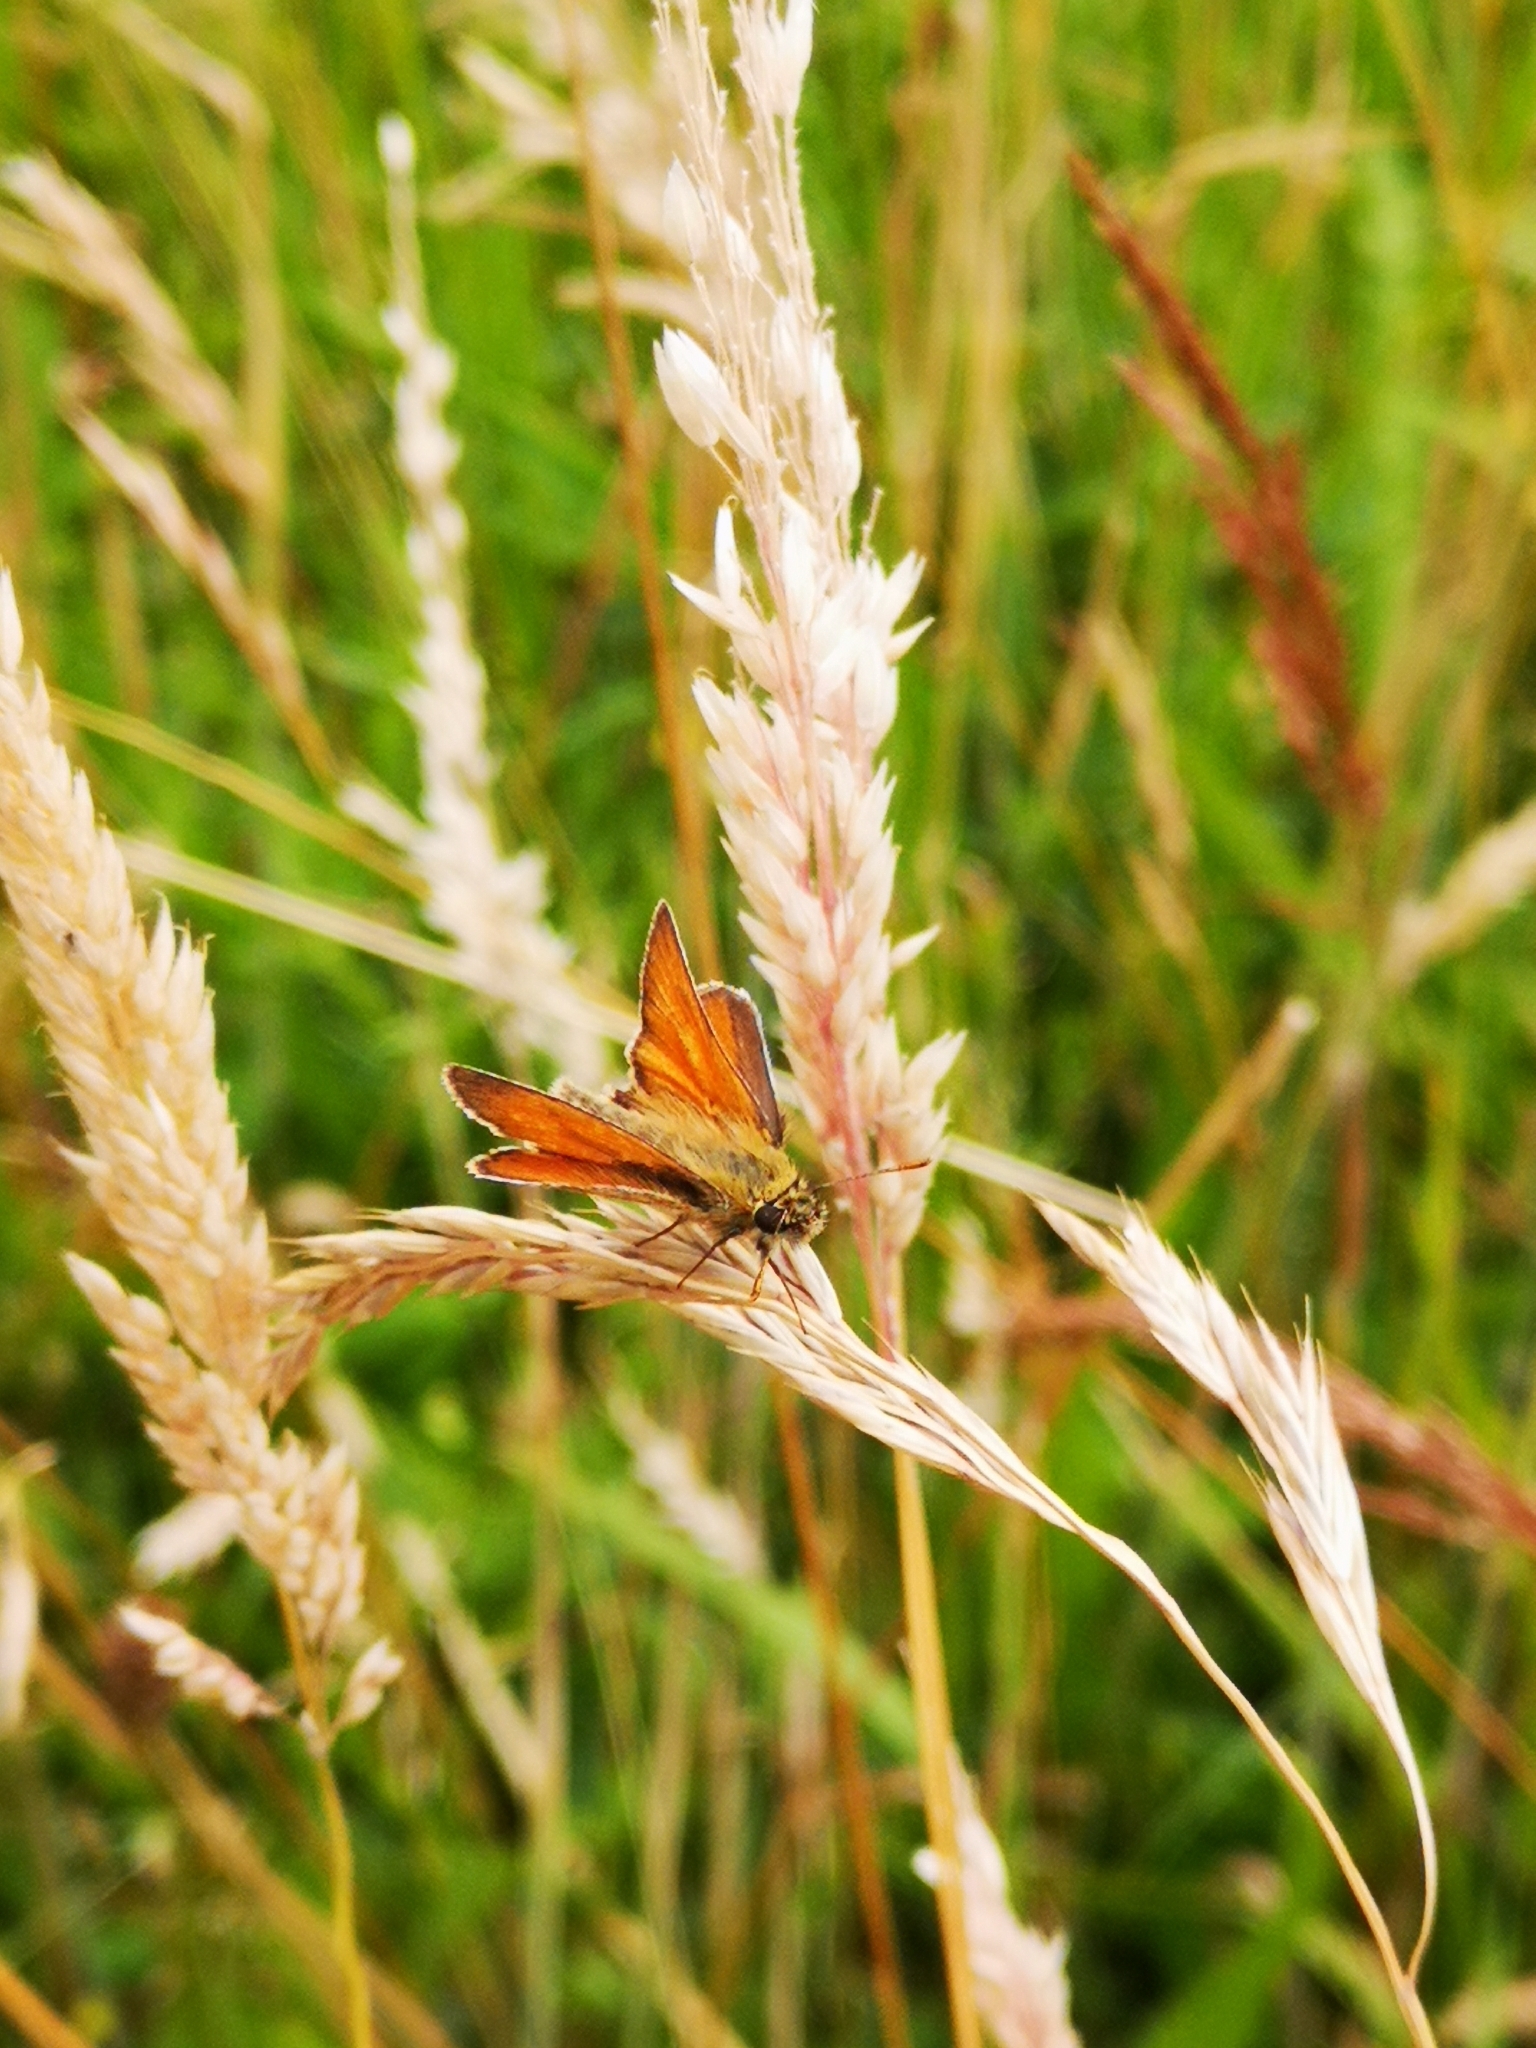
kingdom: Animalia
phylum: Arthropoda
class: Insecta
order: Lepidoptera
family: Hesperiidae
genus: Thymelicus
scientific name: Thymelicus sylvestris
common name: Small skipper
